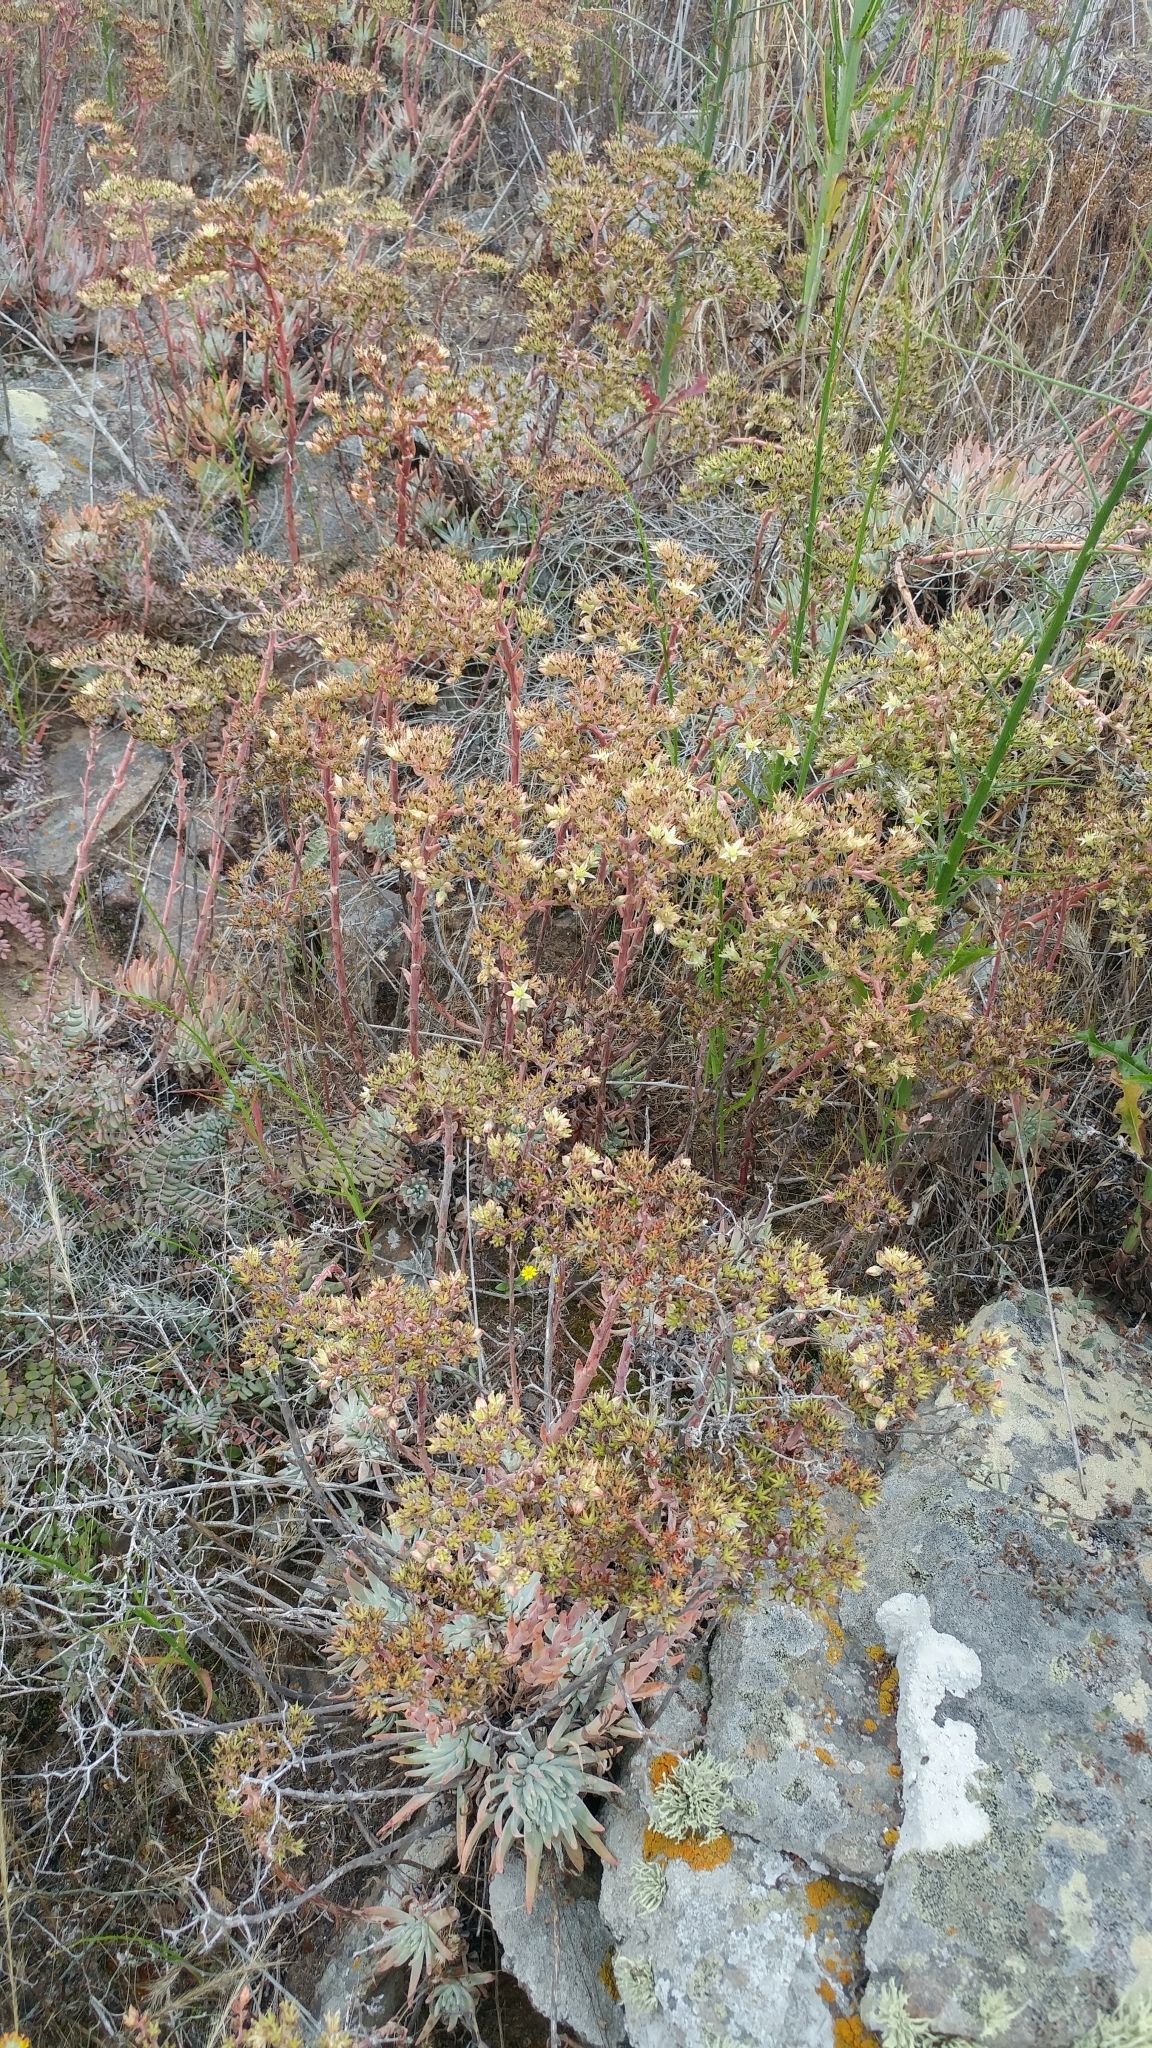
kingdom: Plantae
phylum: Tracheophyta
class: Magnoliopsida
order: Saxifragales
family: Crassulaceae
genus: Dudleya
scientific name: Dudleya virens
